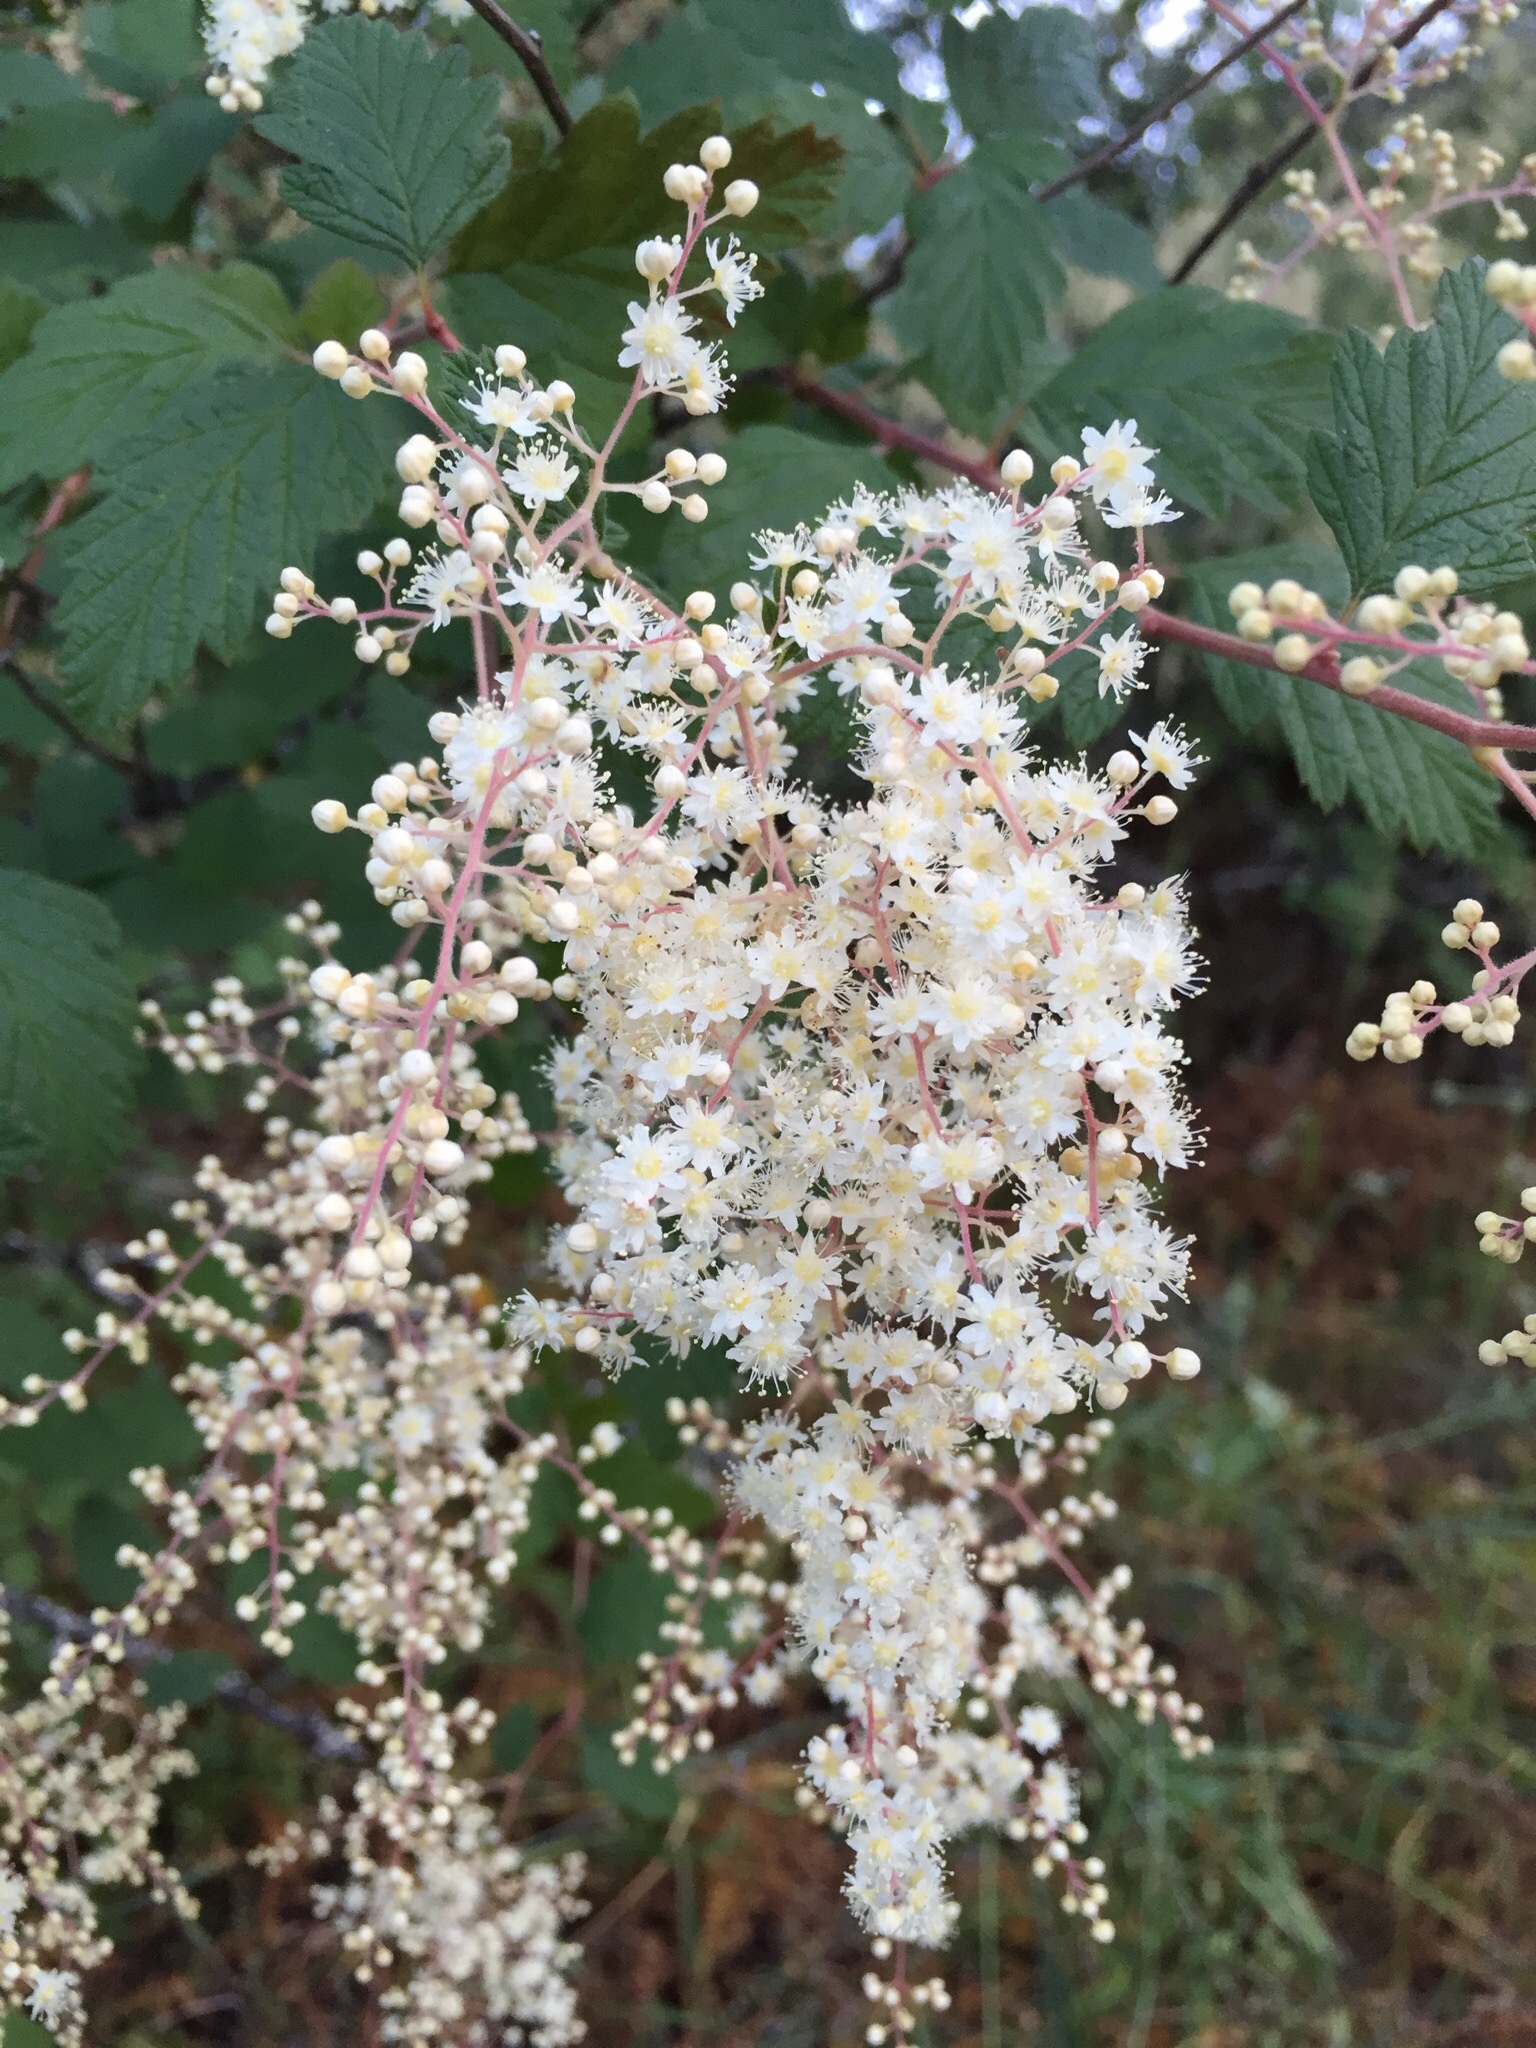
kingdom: Plantae
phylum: Tracheophyta
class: Magnoliopsida
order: Rosales
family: Rosaceae
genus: Holodiscus
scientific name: Holodiscus discolor
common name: Oceanspray
